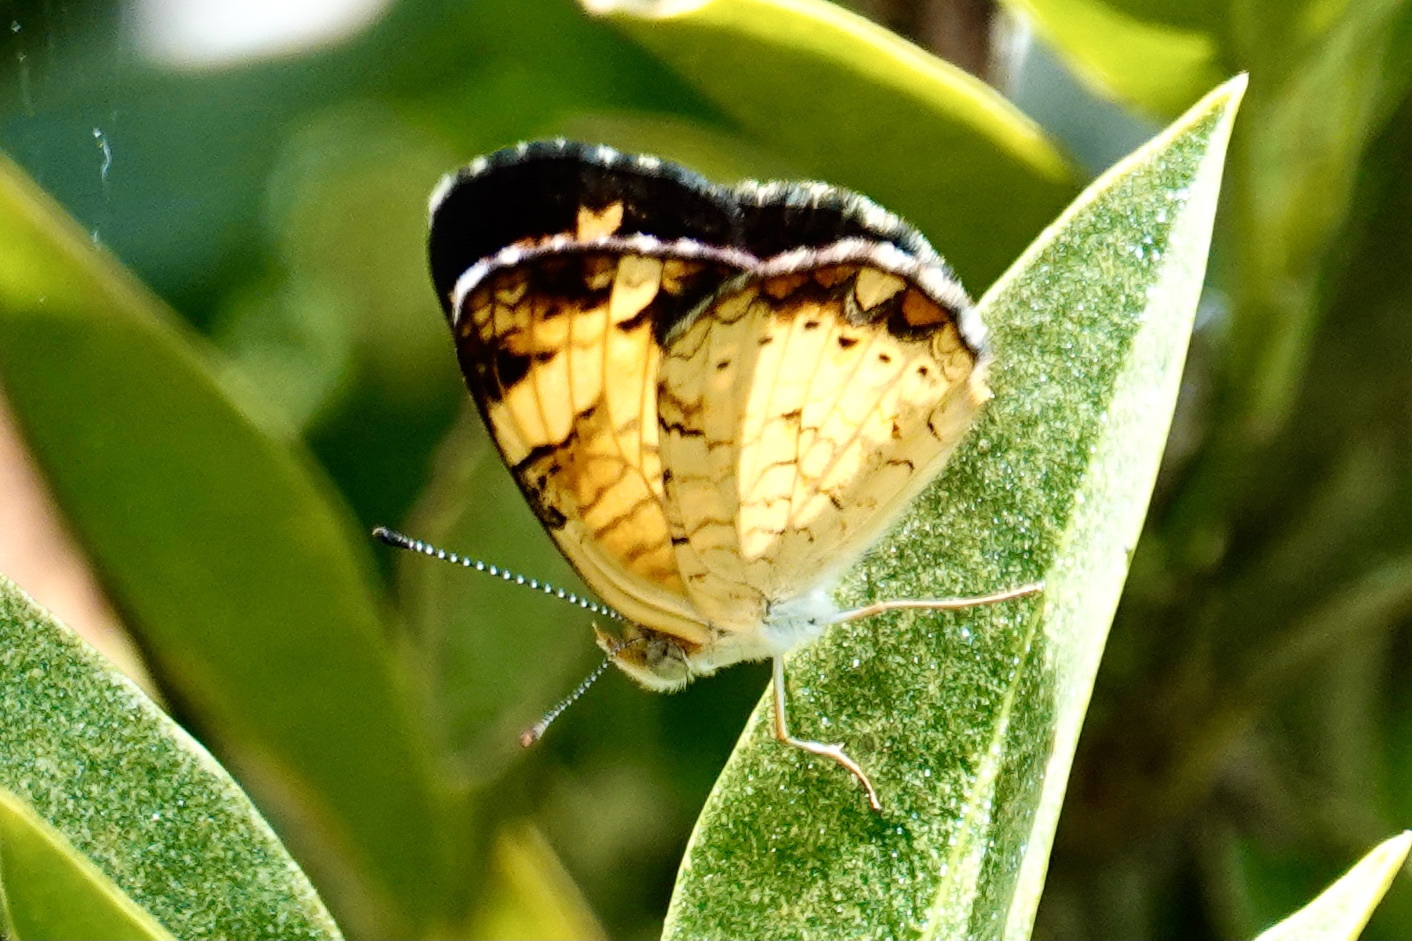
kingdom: Animalia
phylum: Arthropoda
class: Insecta
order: Lepidoptera
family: Nymphalidae
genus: Phyciodes
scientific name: Phyciodes tharos
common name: Pearl crescent
